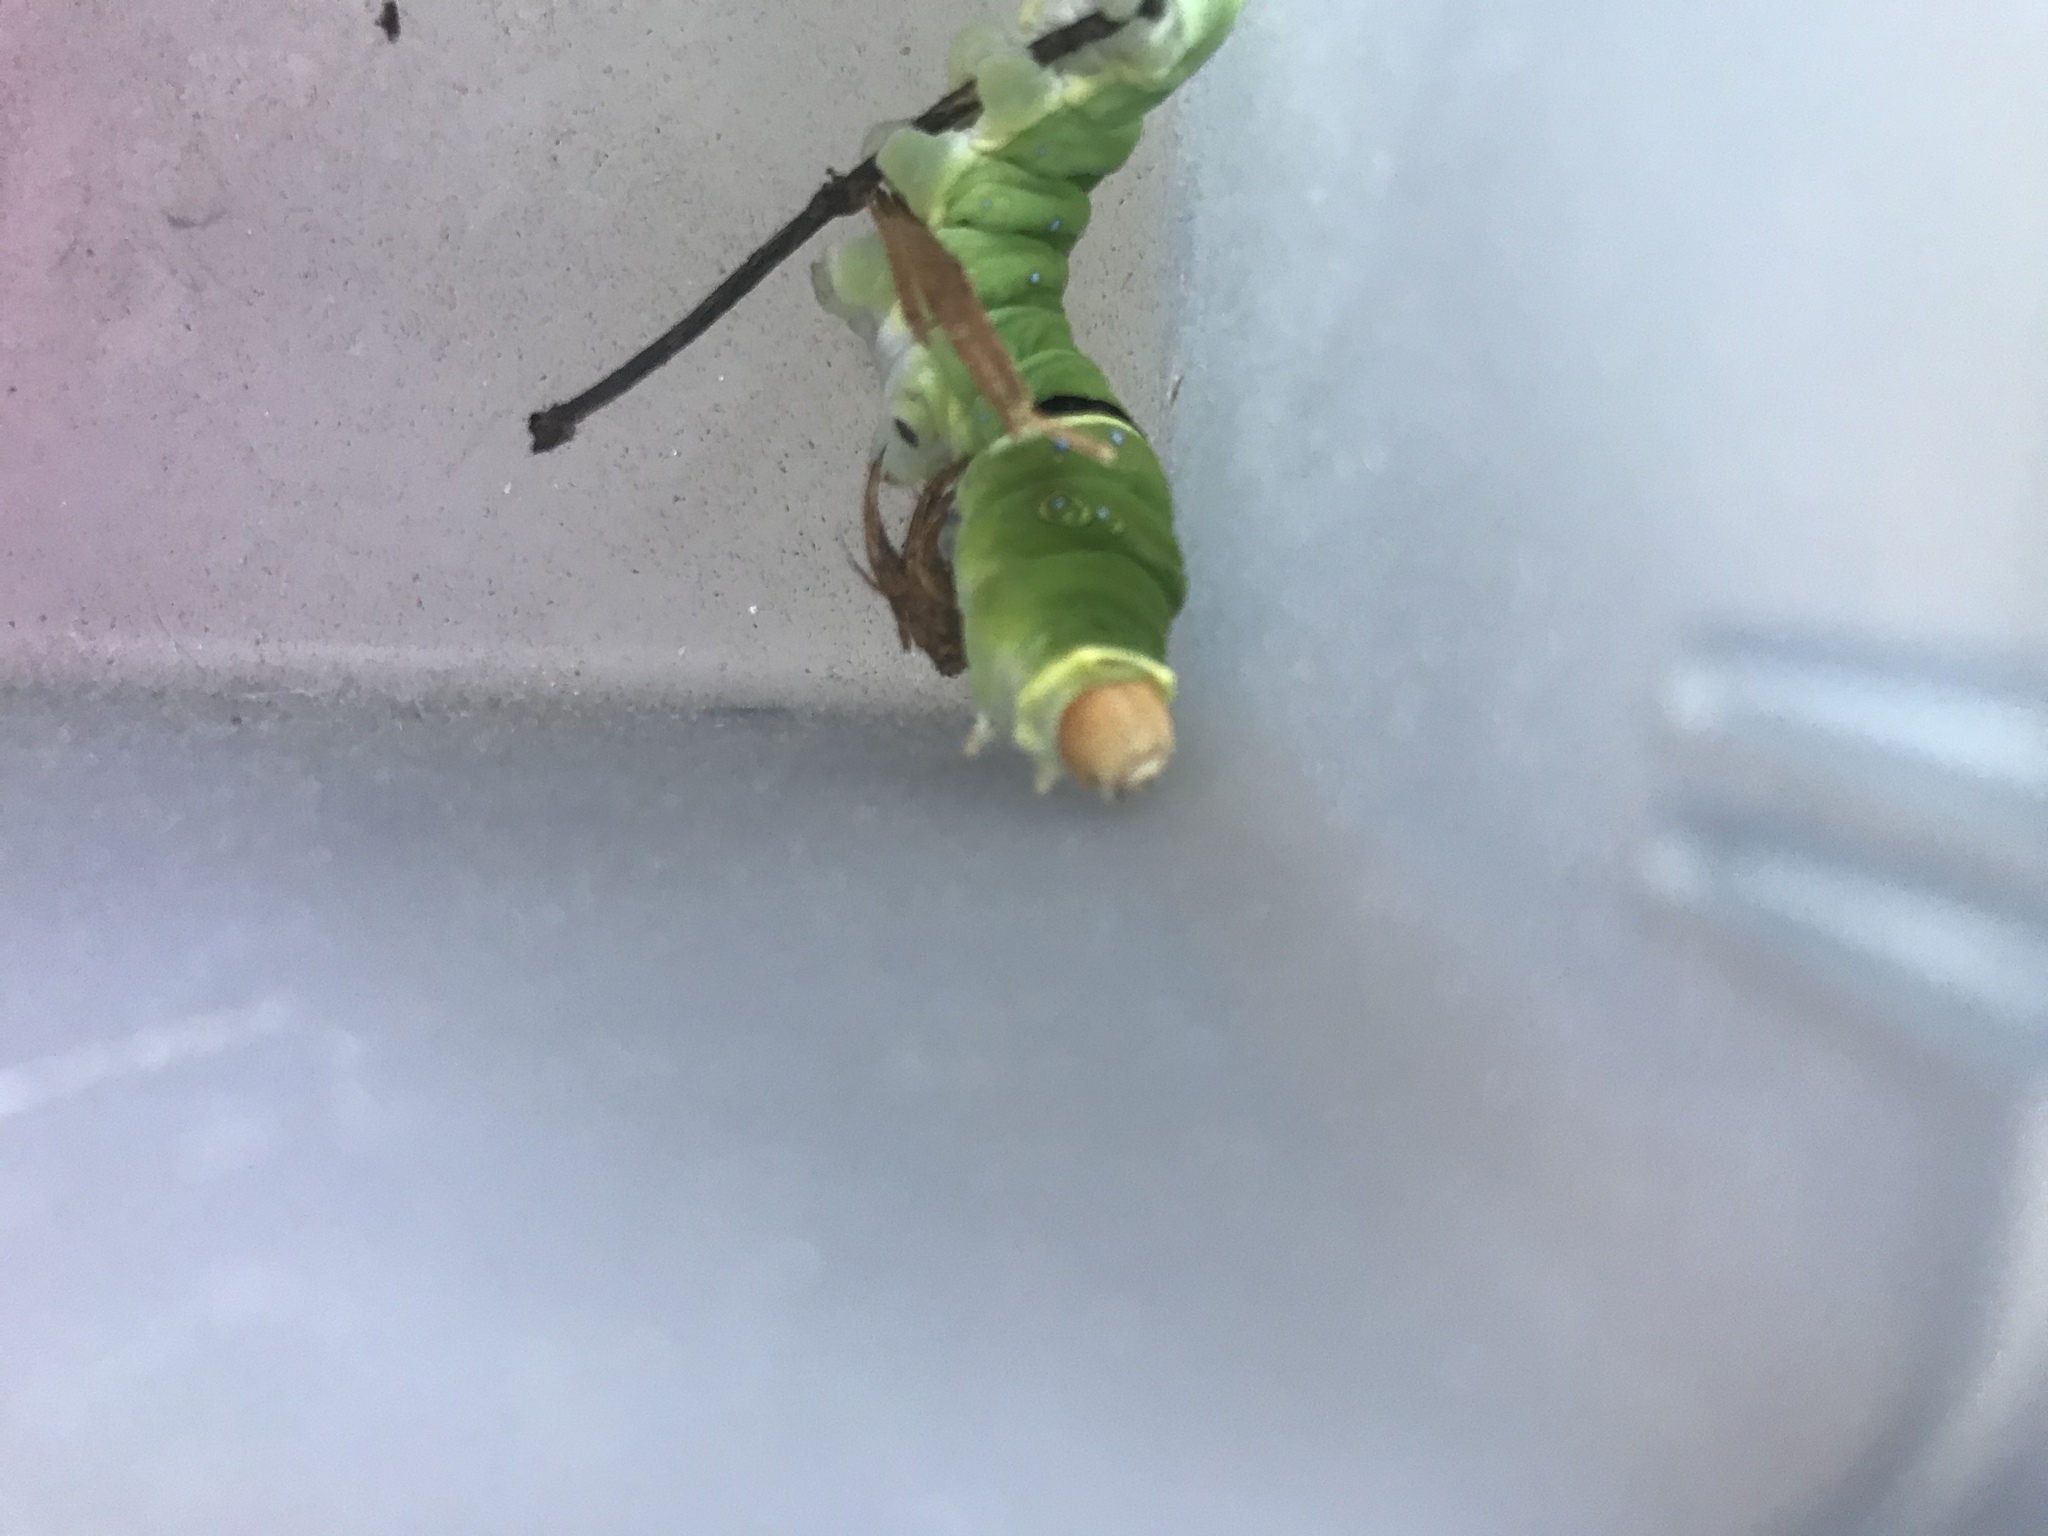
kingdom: Animalia
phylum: Arthropoda
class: Insecta
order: Lepidoptera
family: Papilionidae
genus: Papilio
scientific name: Papilio multicaudata
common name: Two-tailed tiger swallowtail
